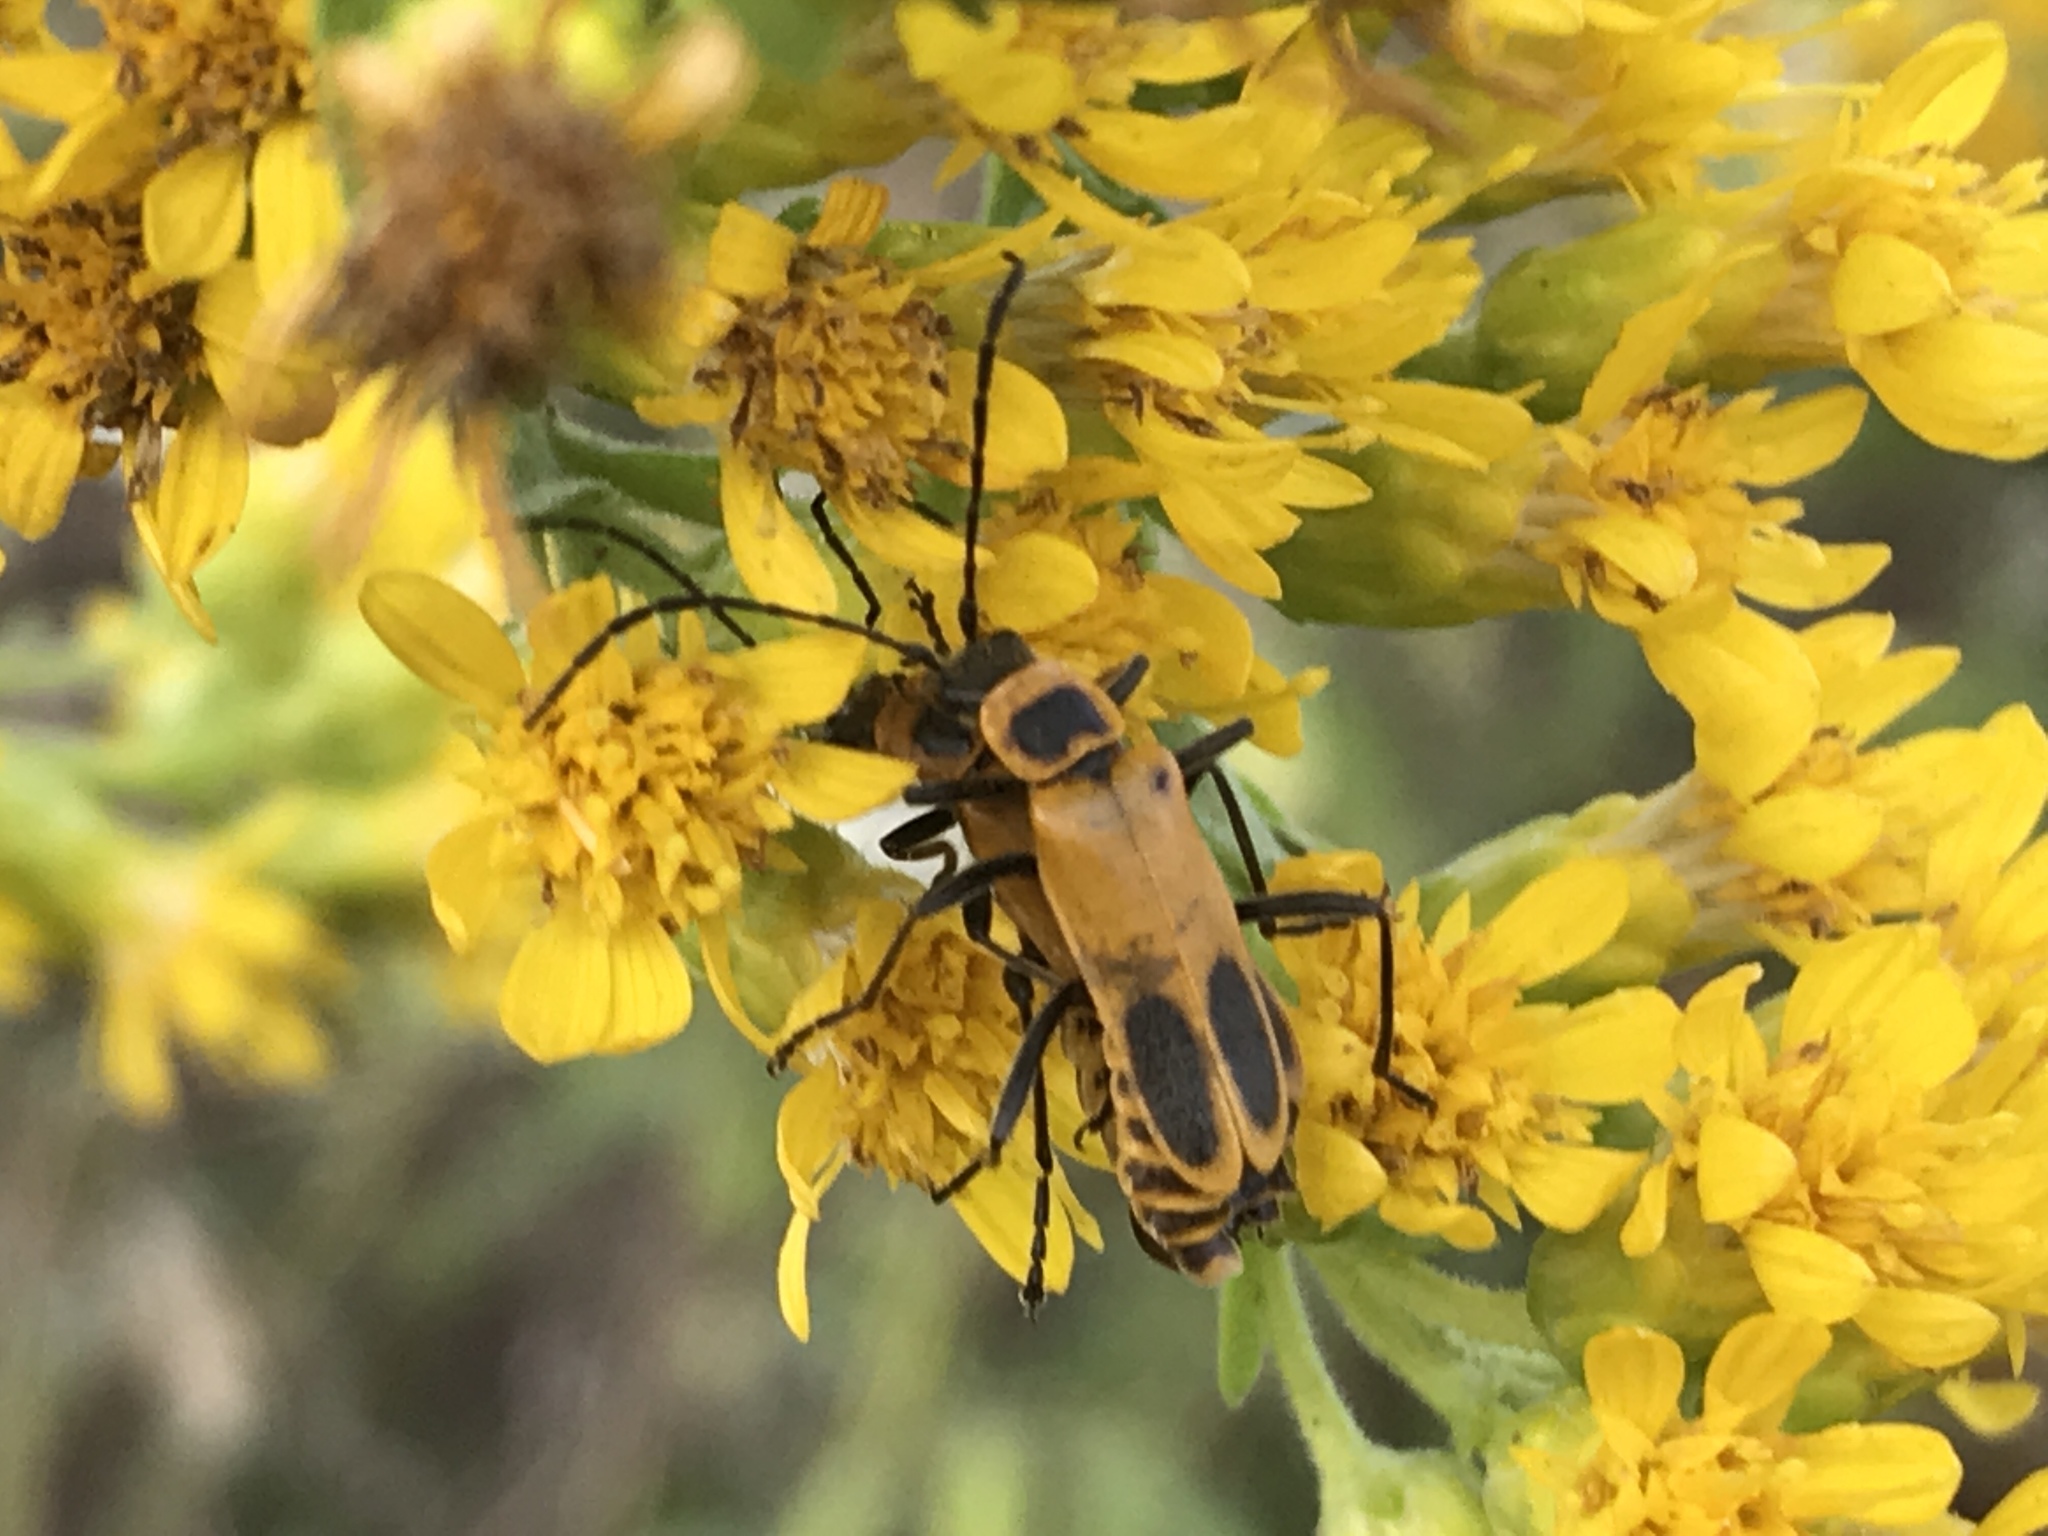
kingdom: Animalia
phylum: Arthropoda
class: Insecta
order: Coleoptera
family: Cantharidae
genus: Chauliognathus
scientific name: Chauliognathus pensylvanicus
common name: Goldenrod soldier beetle
